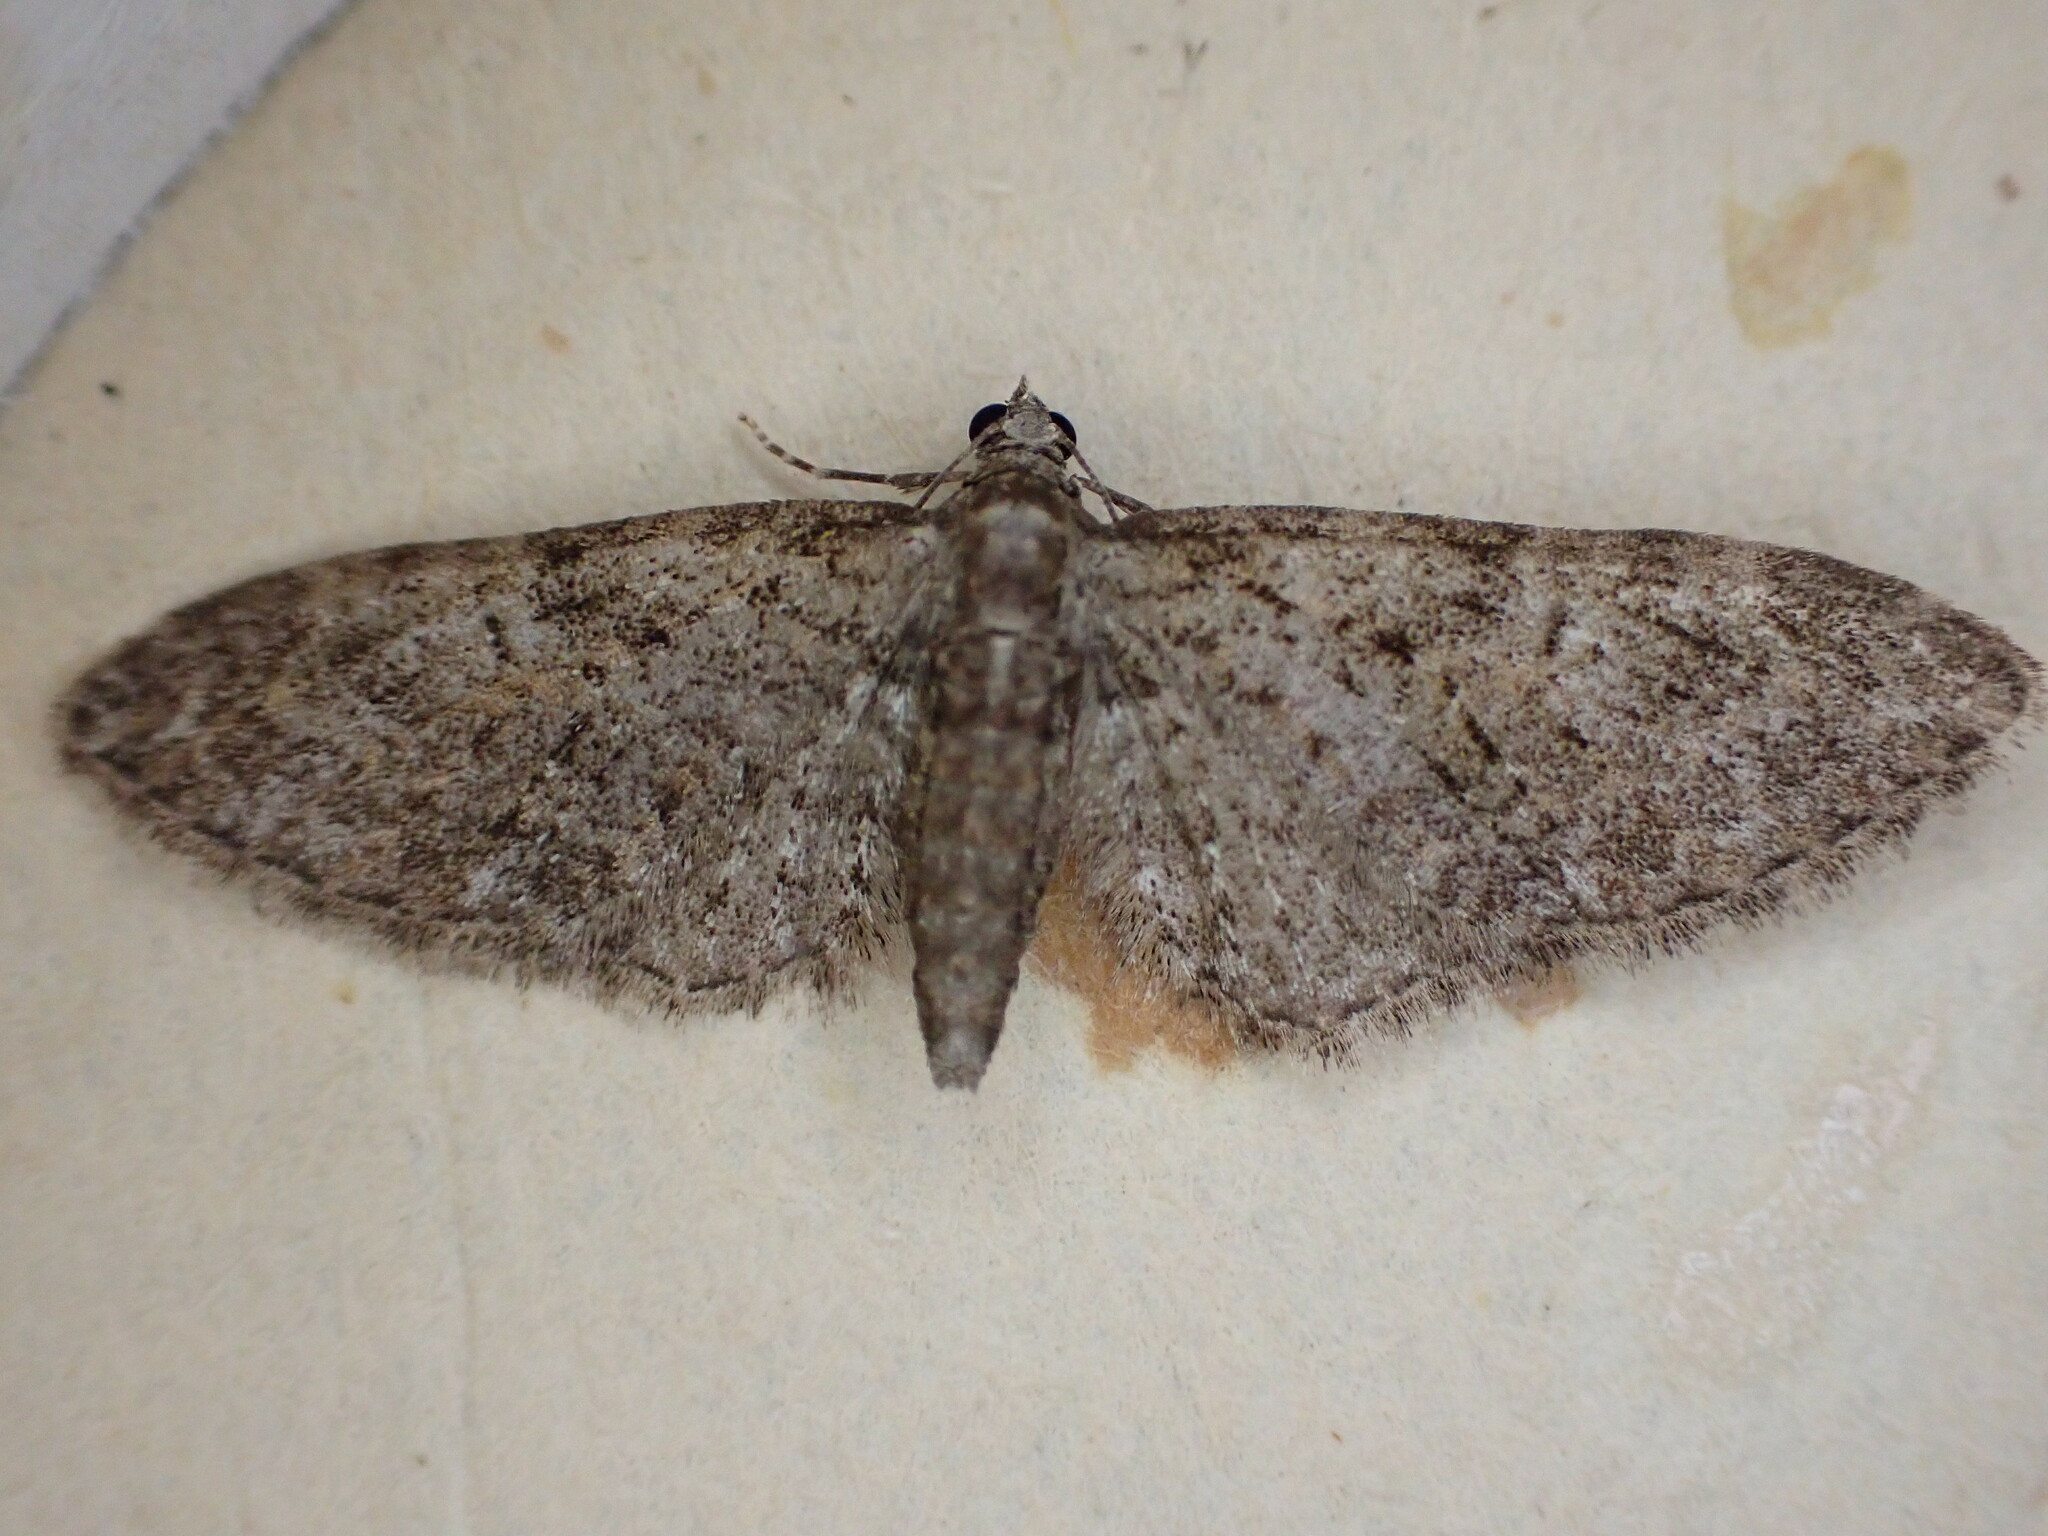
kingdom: Animalia
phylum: Arthropoda
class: Insecta
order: Lepidoptera
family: Geometridae
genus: Eupithecia
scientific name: Eupithecia abbreviata
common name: Brindled pug
